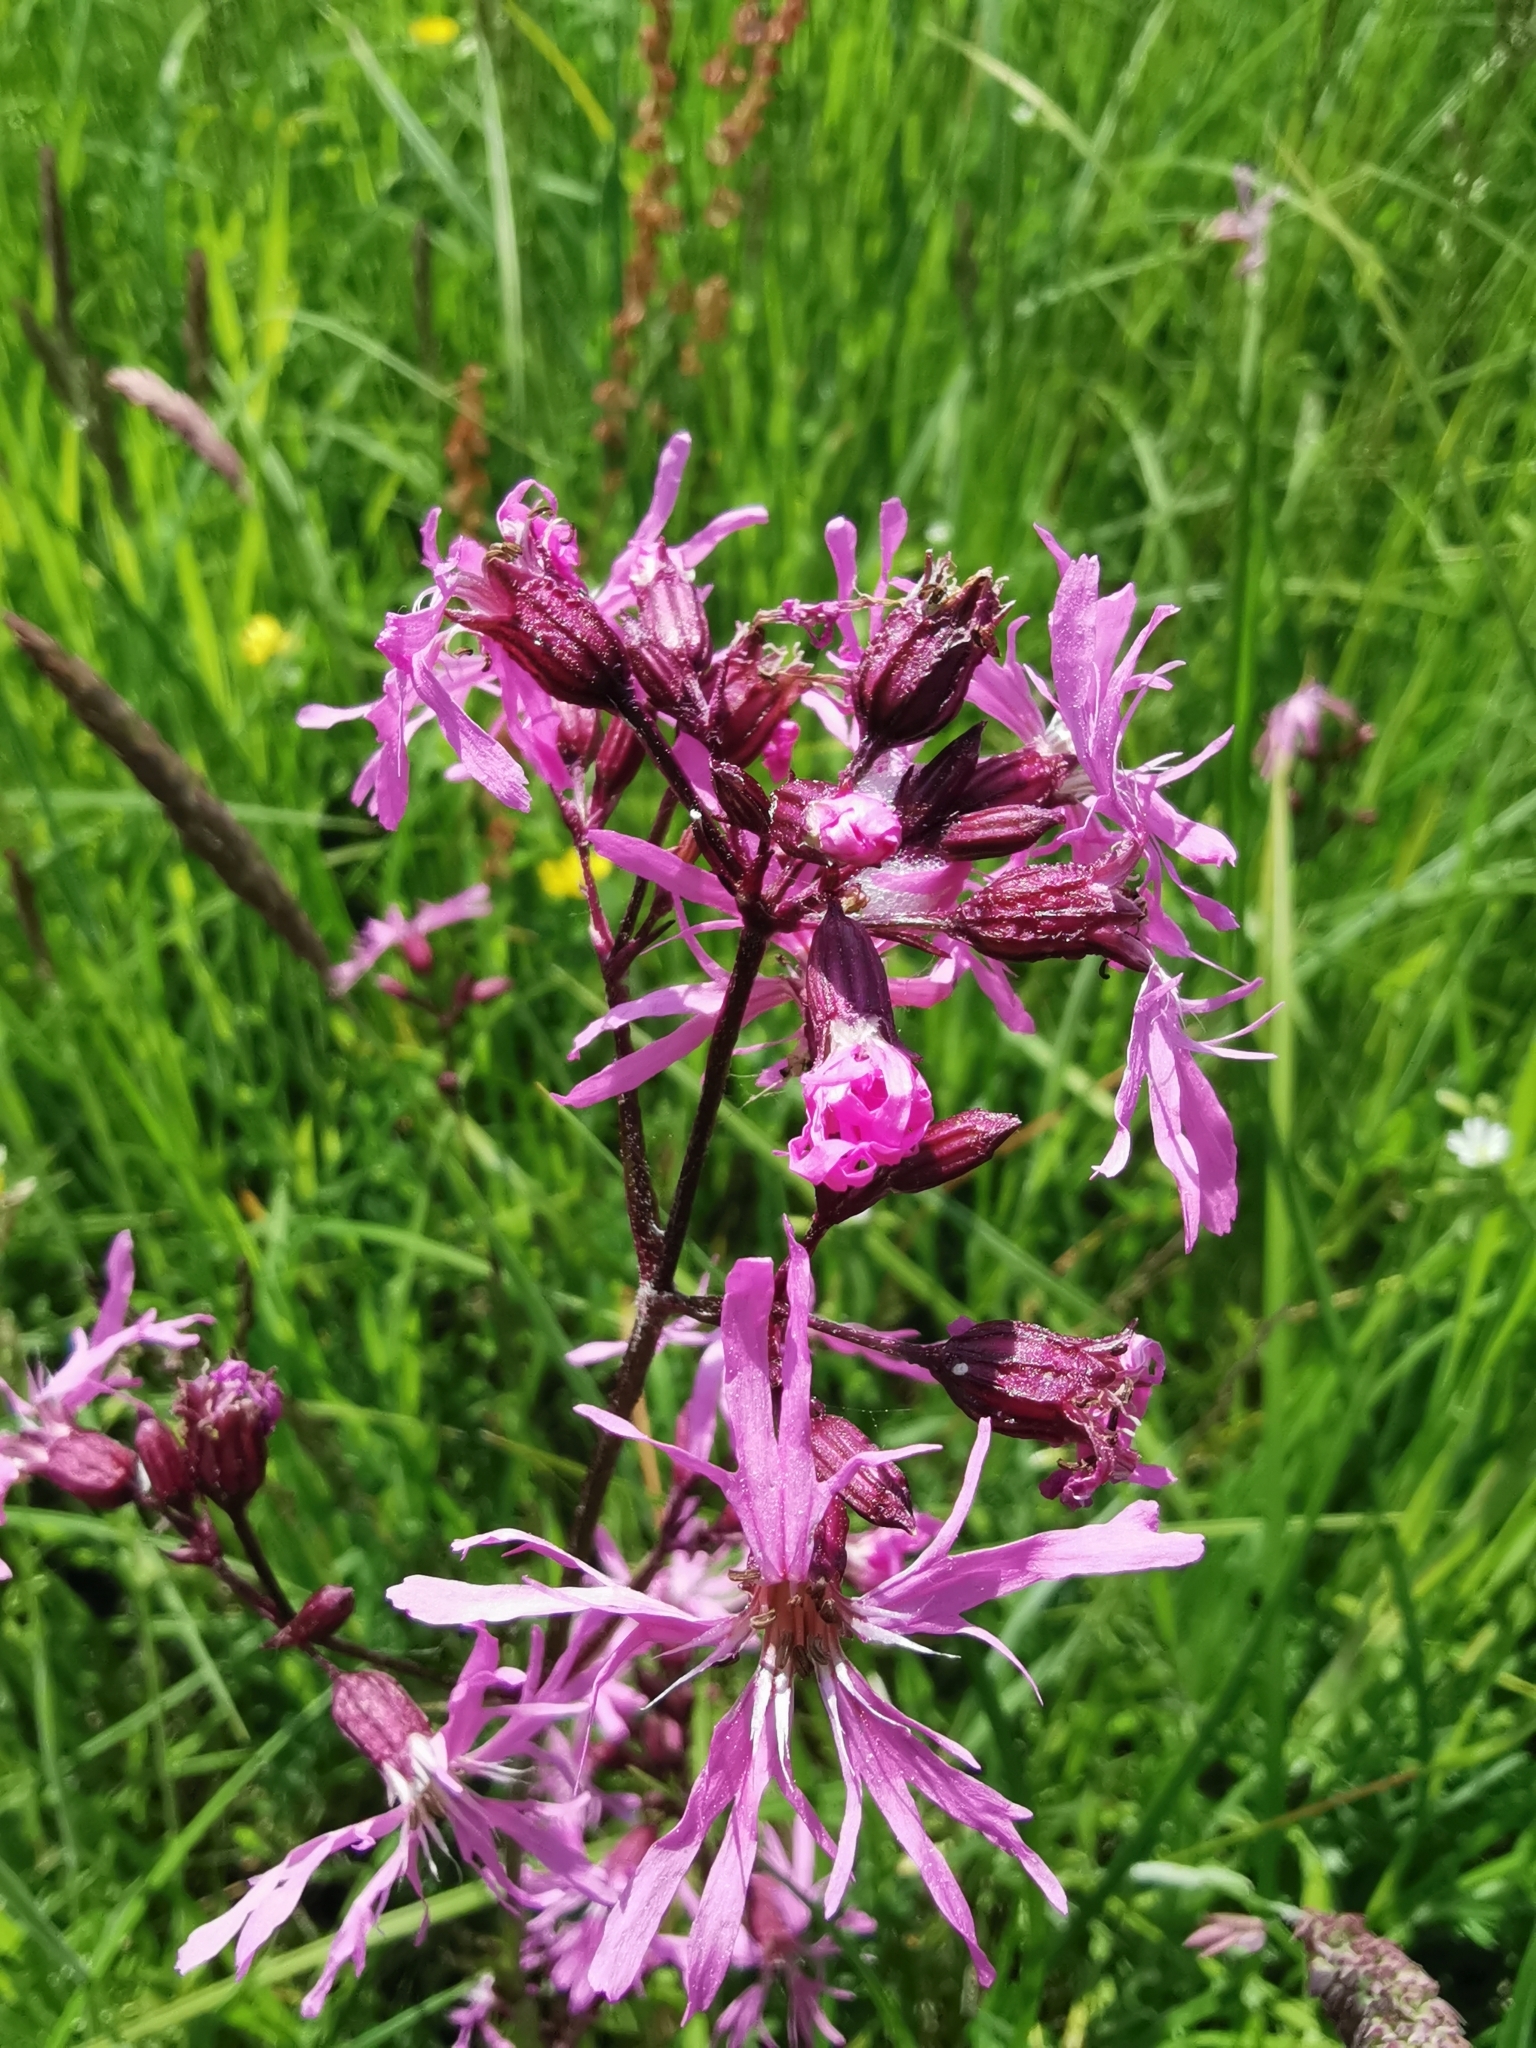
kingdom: Plantae
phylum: Tracheophyta
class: Magnoliopsida
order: Caryophyllales
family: Caryophyllaceae
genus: Silene
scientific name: Silene flos-cuculi
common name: Ragged-robin
